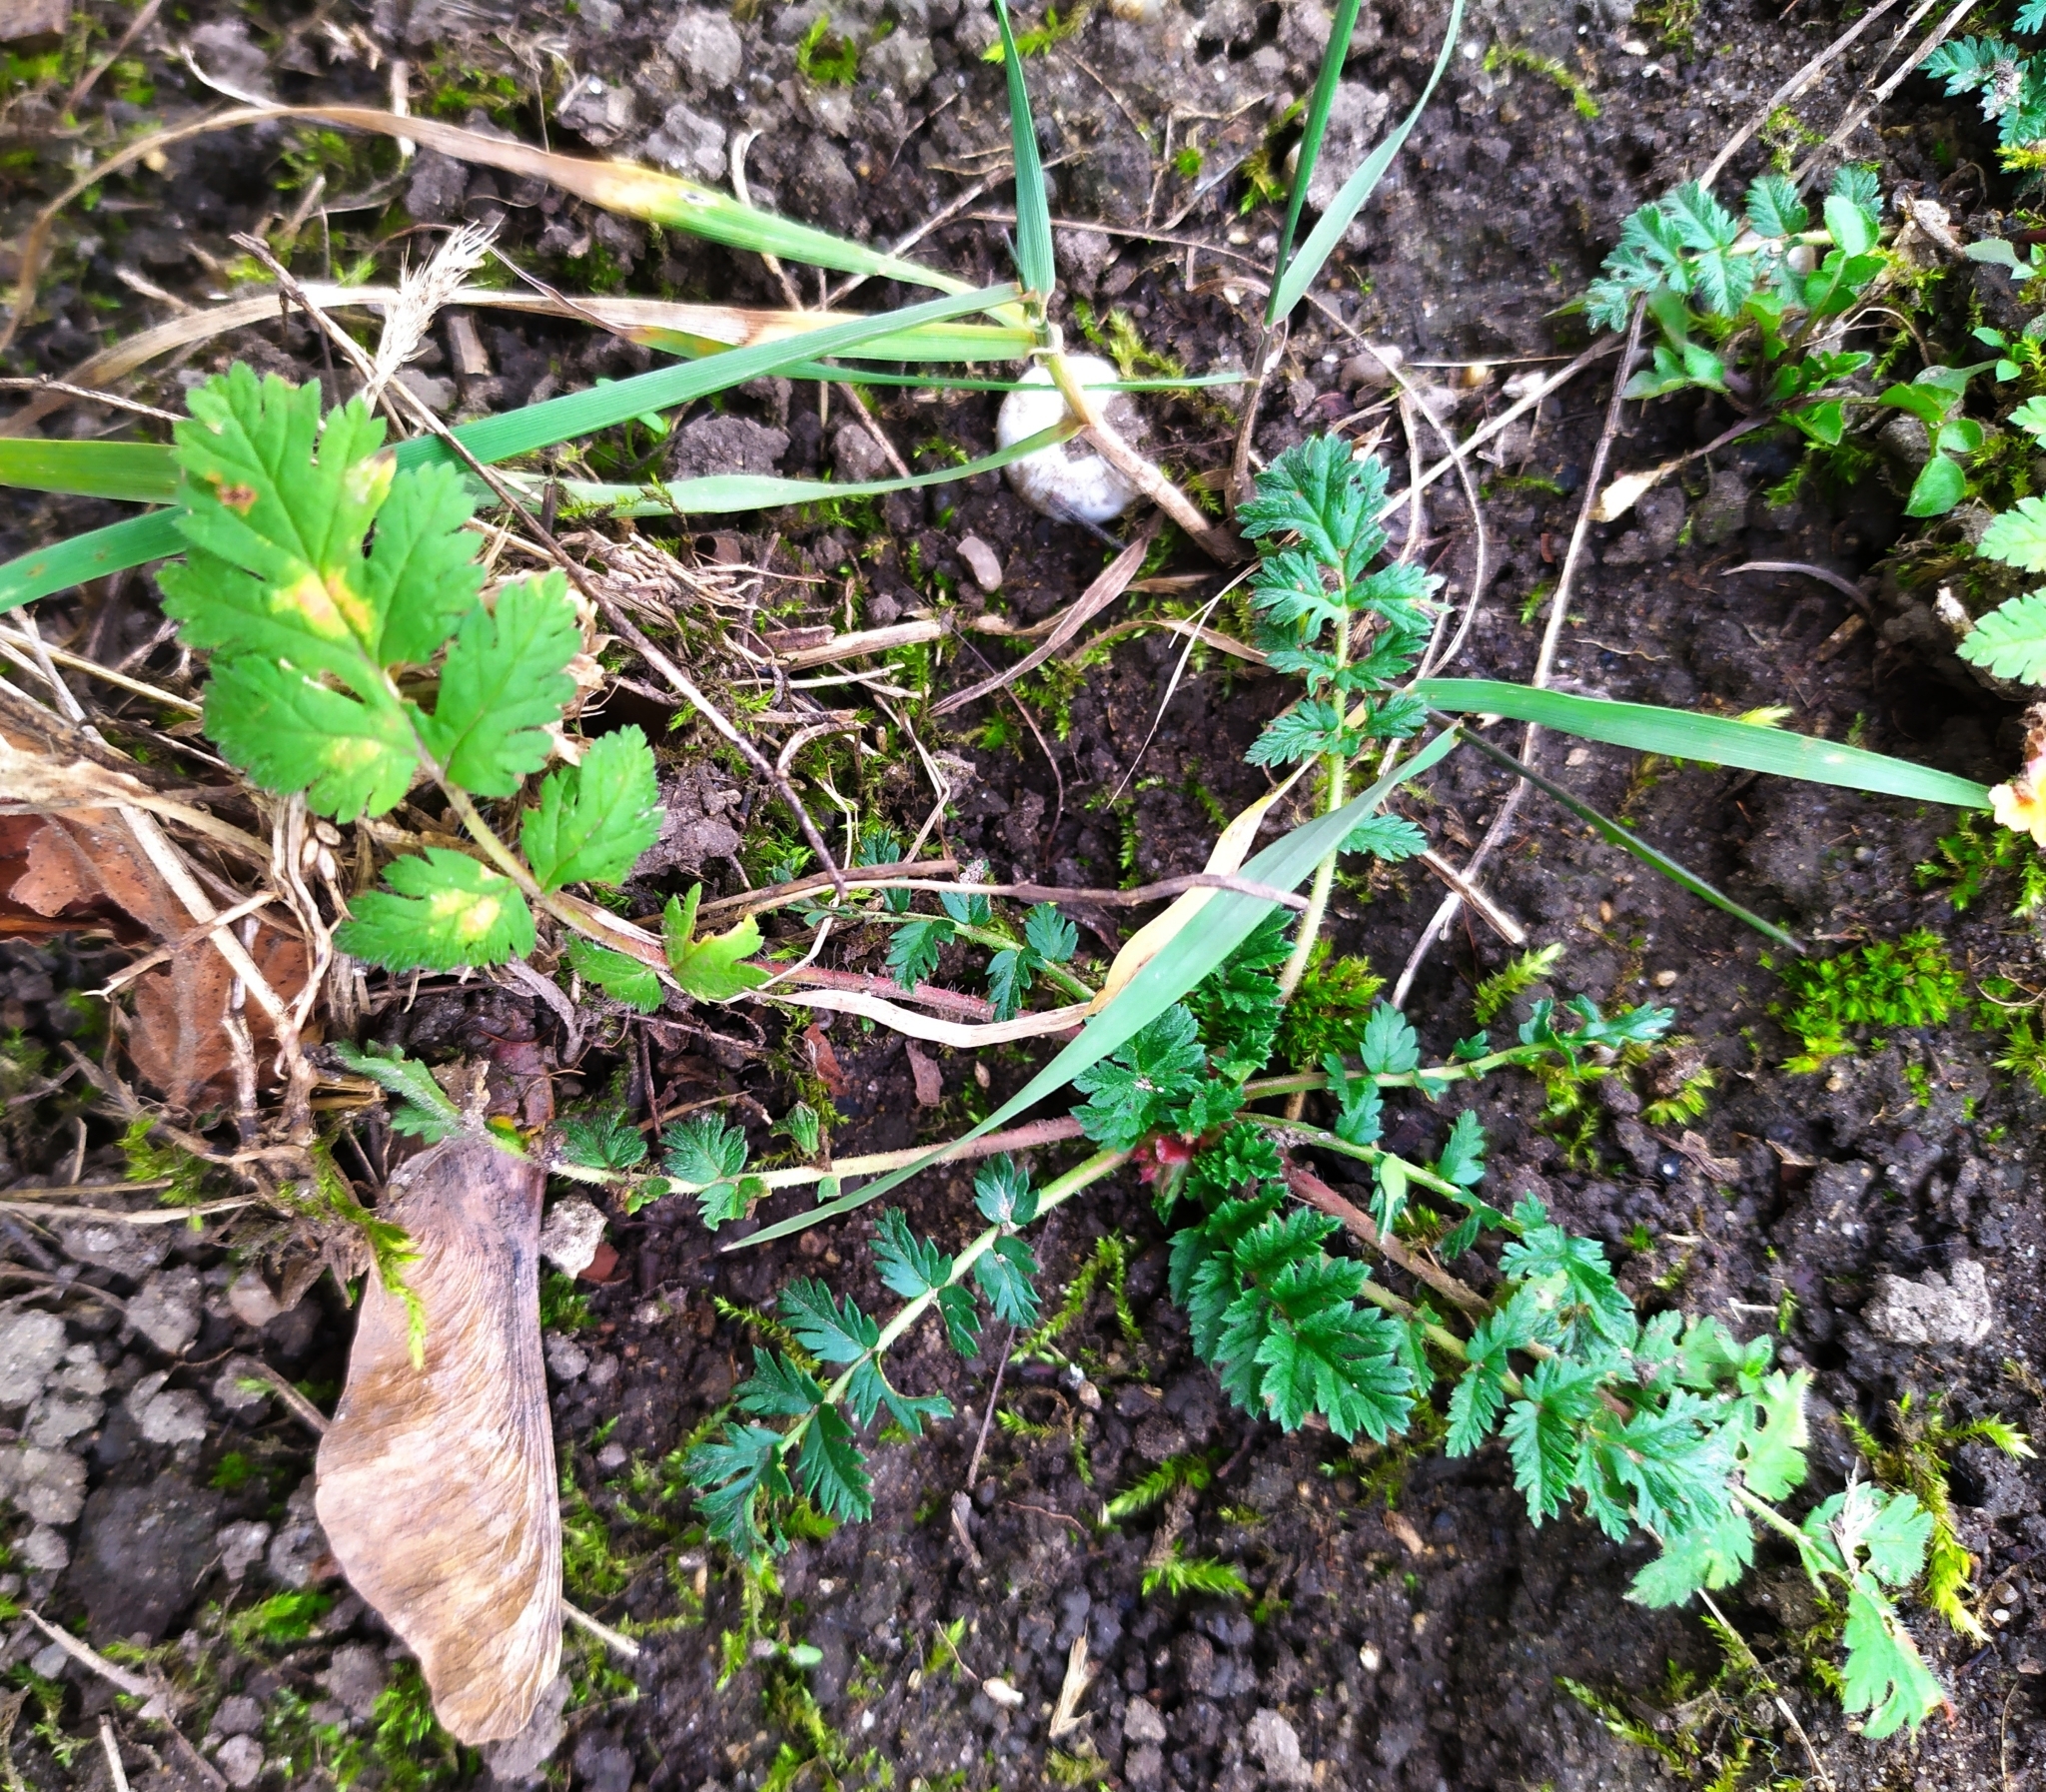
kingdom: Plantae
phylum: Tracheophyta
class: Magnoliopsida
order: Geraniales
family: Geraniaceae
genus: Erodium
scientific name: Erodium cicutarium
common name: Common stork's-bill
